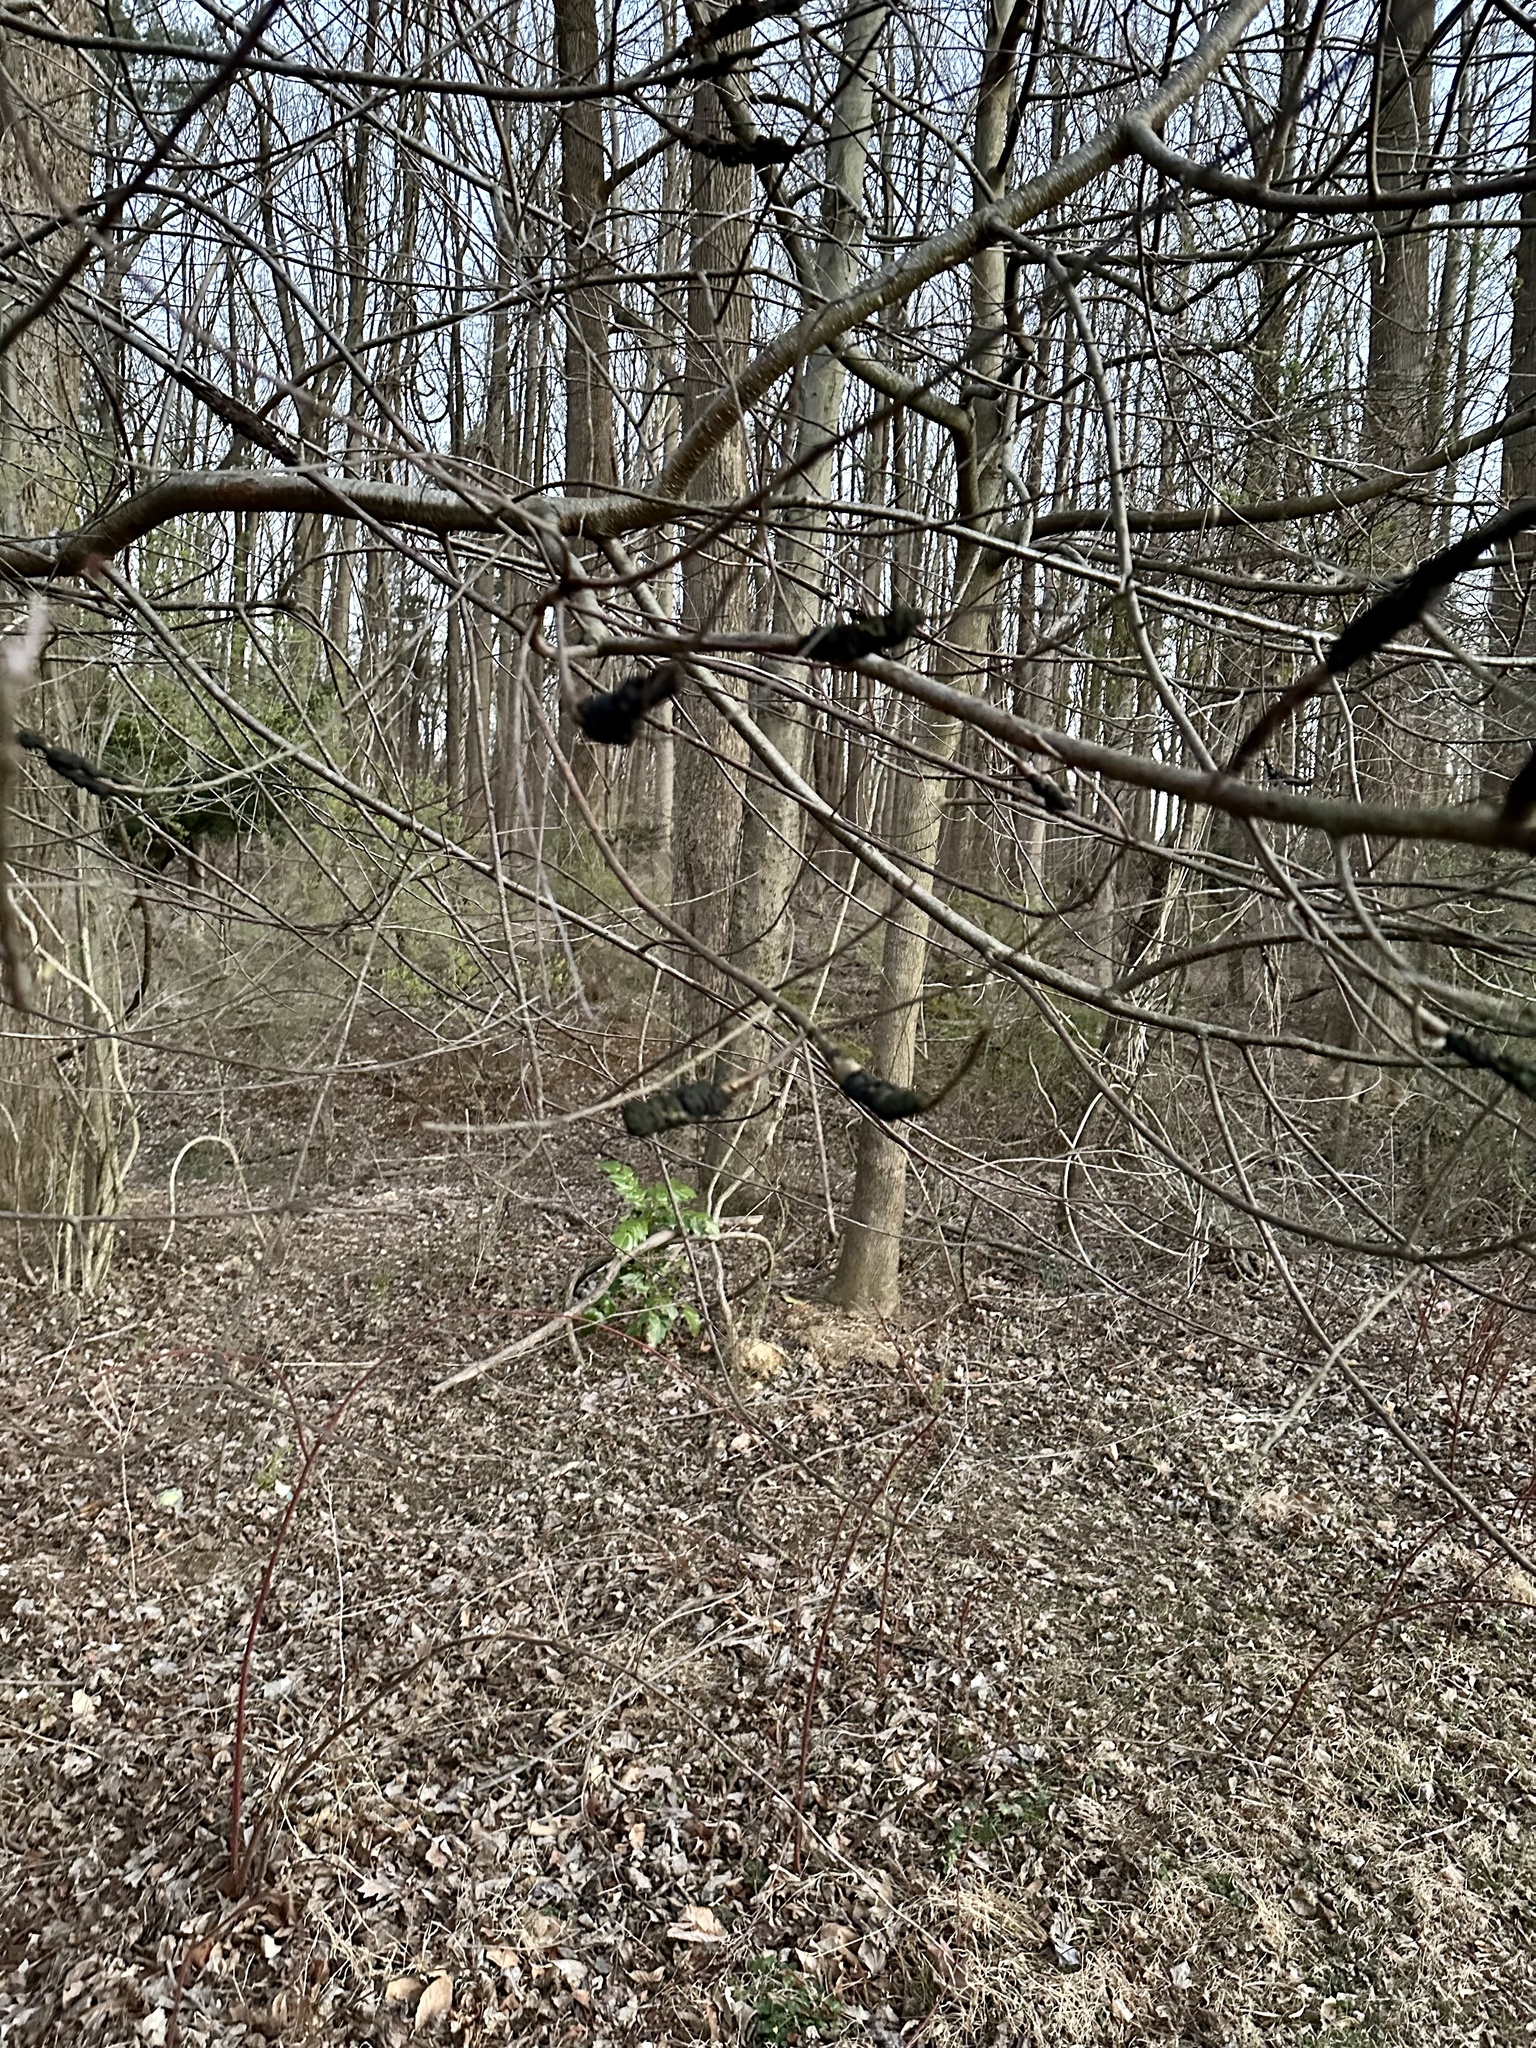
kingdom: Plantae
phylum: Tracheophyta
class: Magnoliopsida
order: Ranunculales
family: Berberidaceae
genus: Mahonia
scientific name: Mahonia bealei
